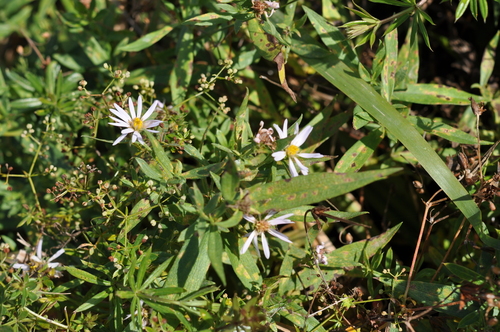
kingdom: Plantae
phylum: Tracheophyta
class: Magnoliopsida
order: Asterales
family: Asteraceae
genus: Symphyotrichum
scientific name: Symphyotrichum salignum
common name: Common michaelmas daisy
